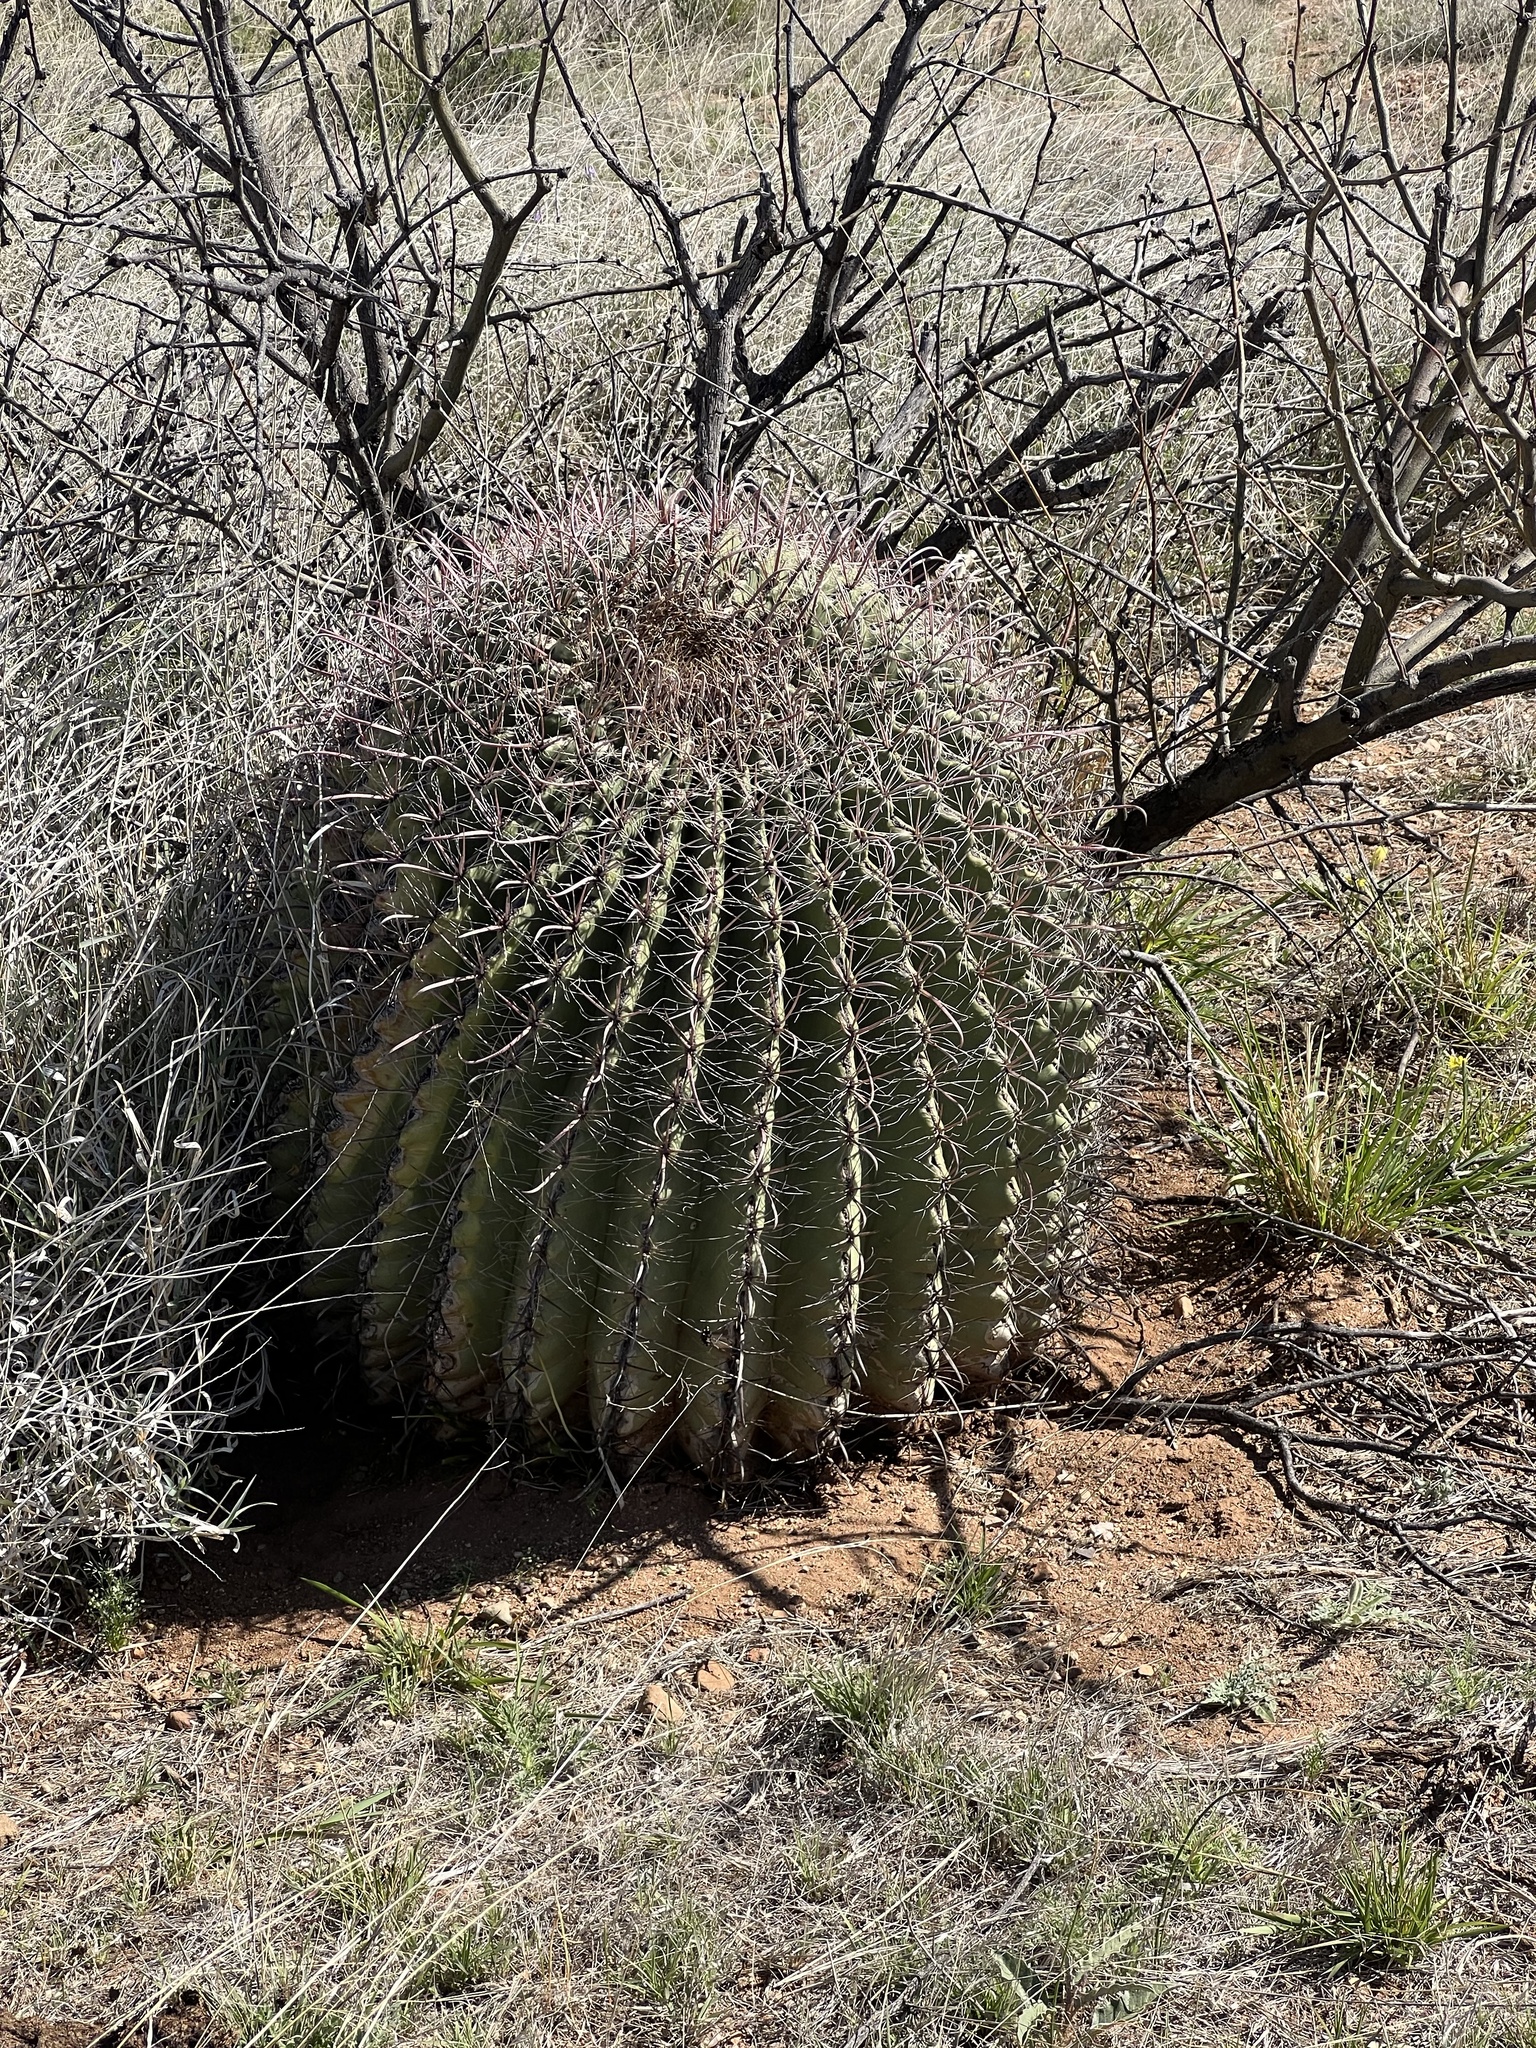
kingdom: Plantae
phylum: Tracheophyta
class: Magnoliopsida
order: Caryophyllales
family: Cactaceae
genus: Ferocactus
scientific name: Ferocactus wislizeni
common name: Candy barrel cactus
